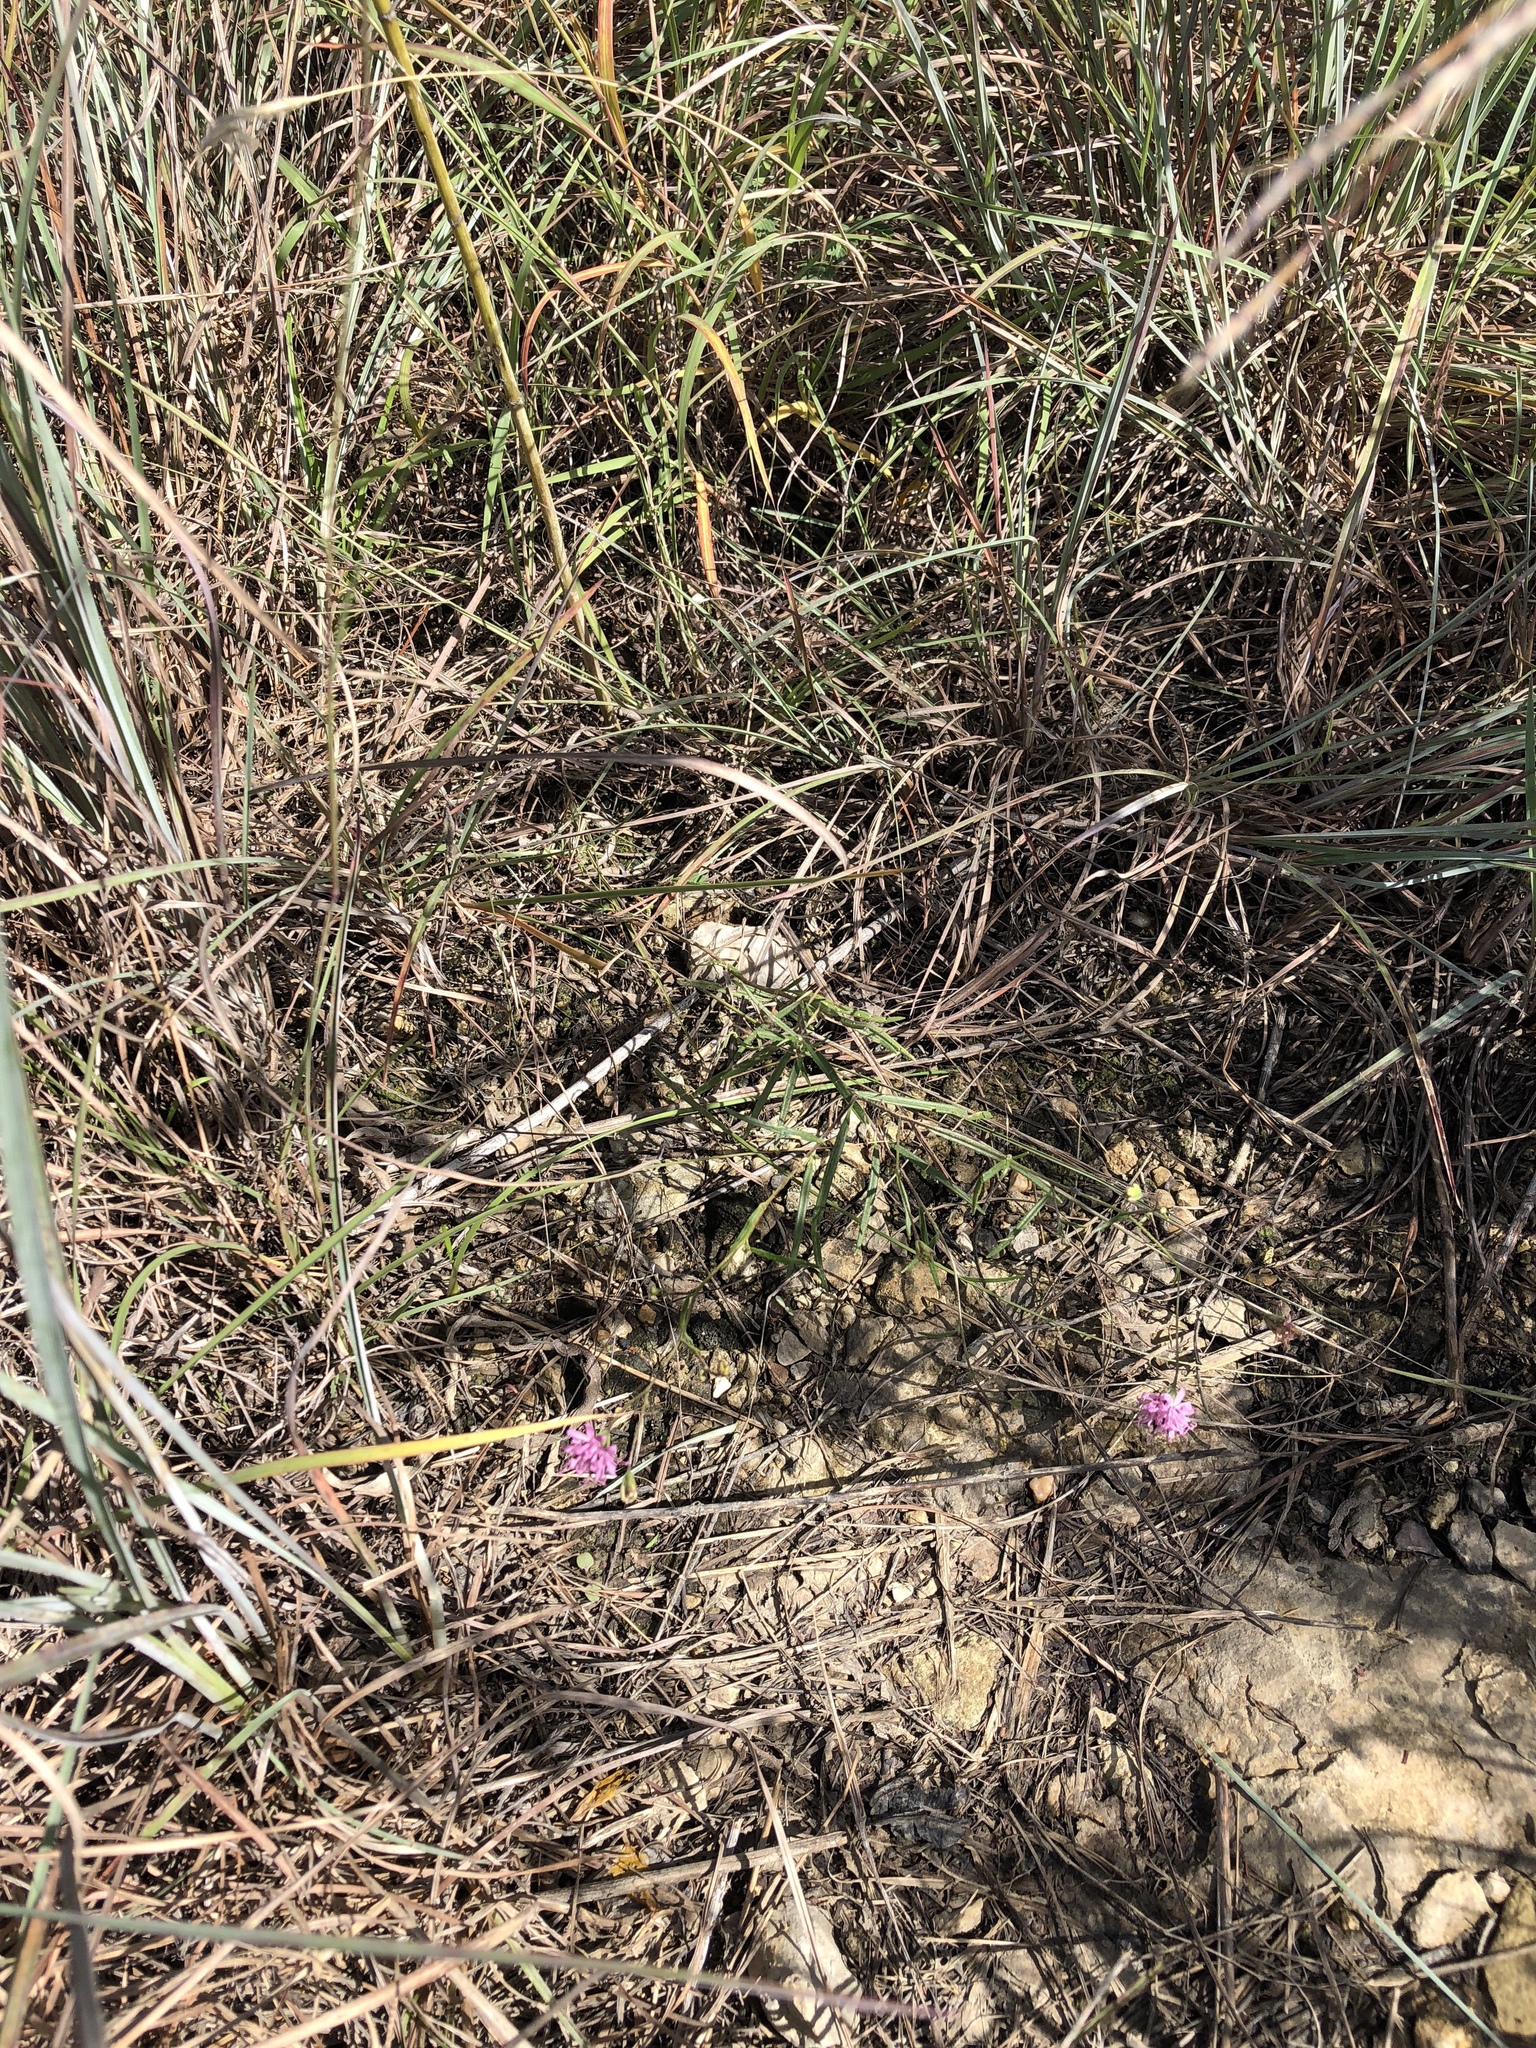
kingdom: Plantae
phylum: Tracheophyta
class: Magnoliopsida
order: Asterales
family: Asteraceae
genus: Palafoxia
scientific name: Palafoxia callosa
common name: Small palafox
